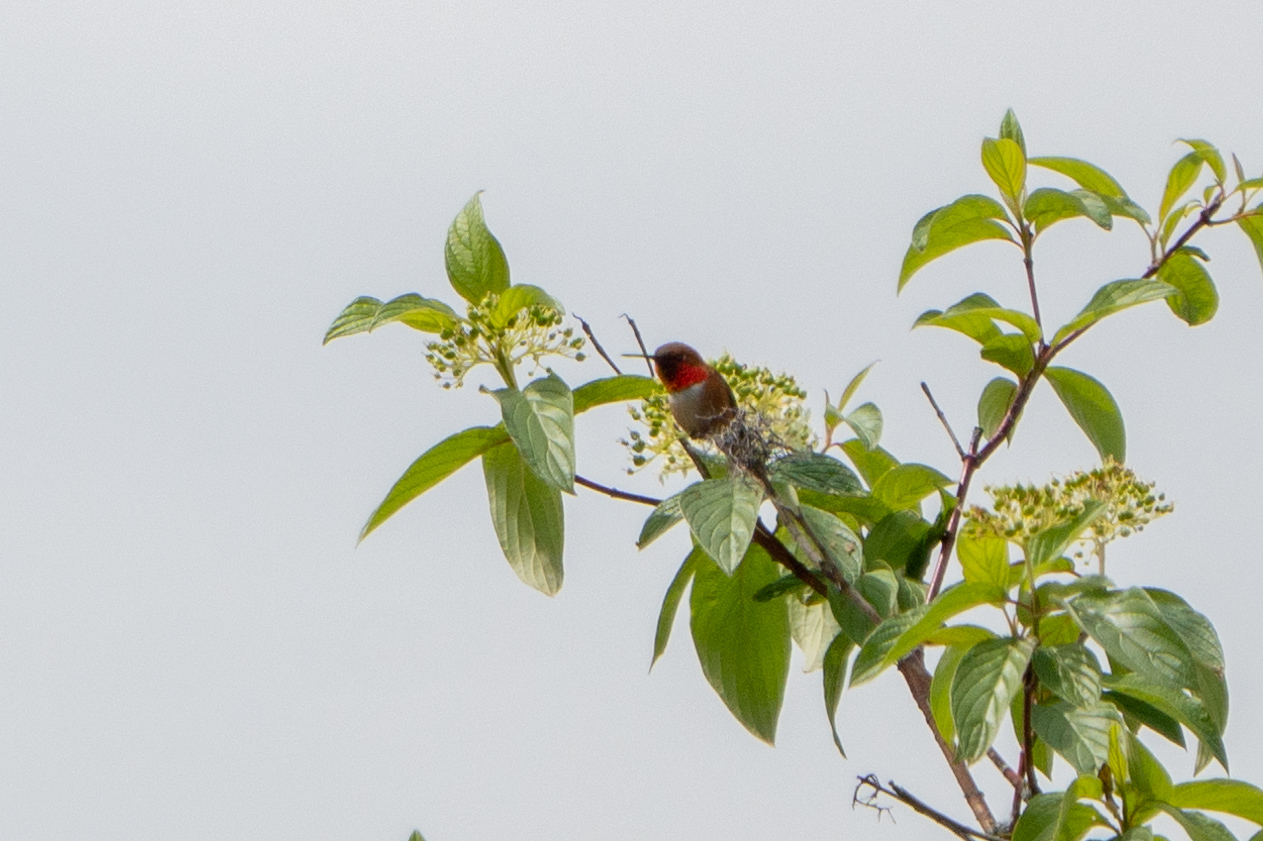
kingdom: Animalia
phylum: Chordata
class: Aves
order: Apodiformes
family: Trochilidae
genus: Selasphorus
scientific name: Selasphorus rufus
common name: Rufous hummingbird
